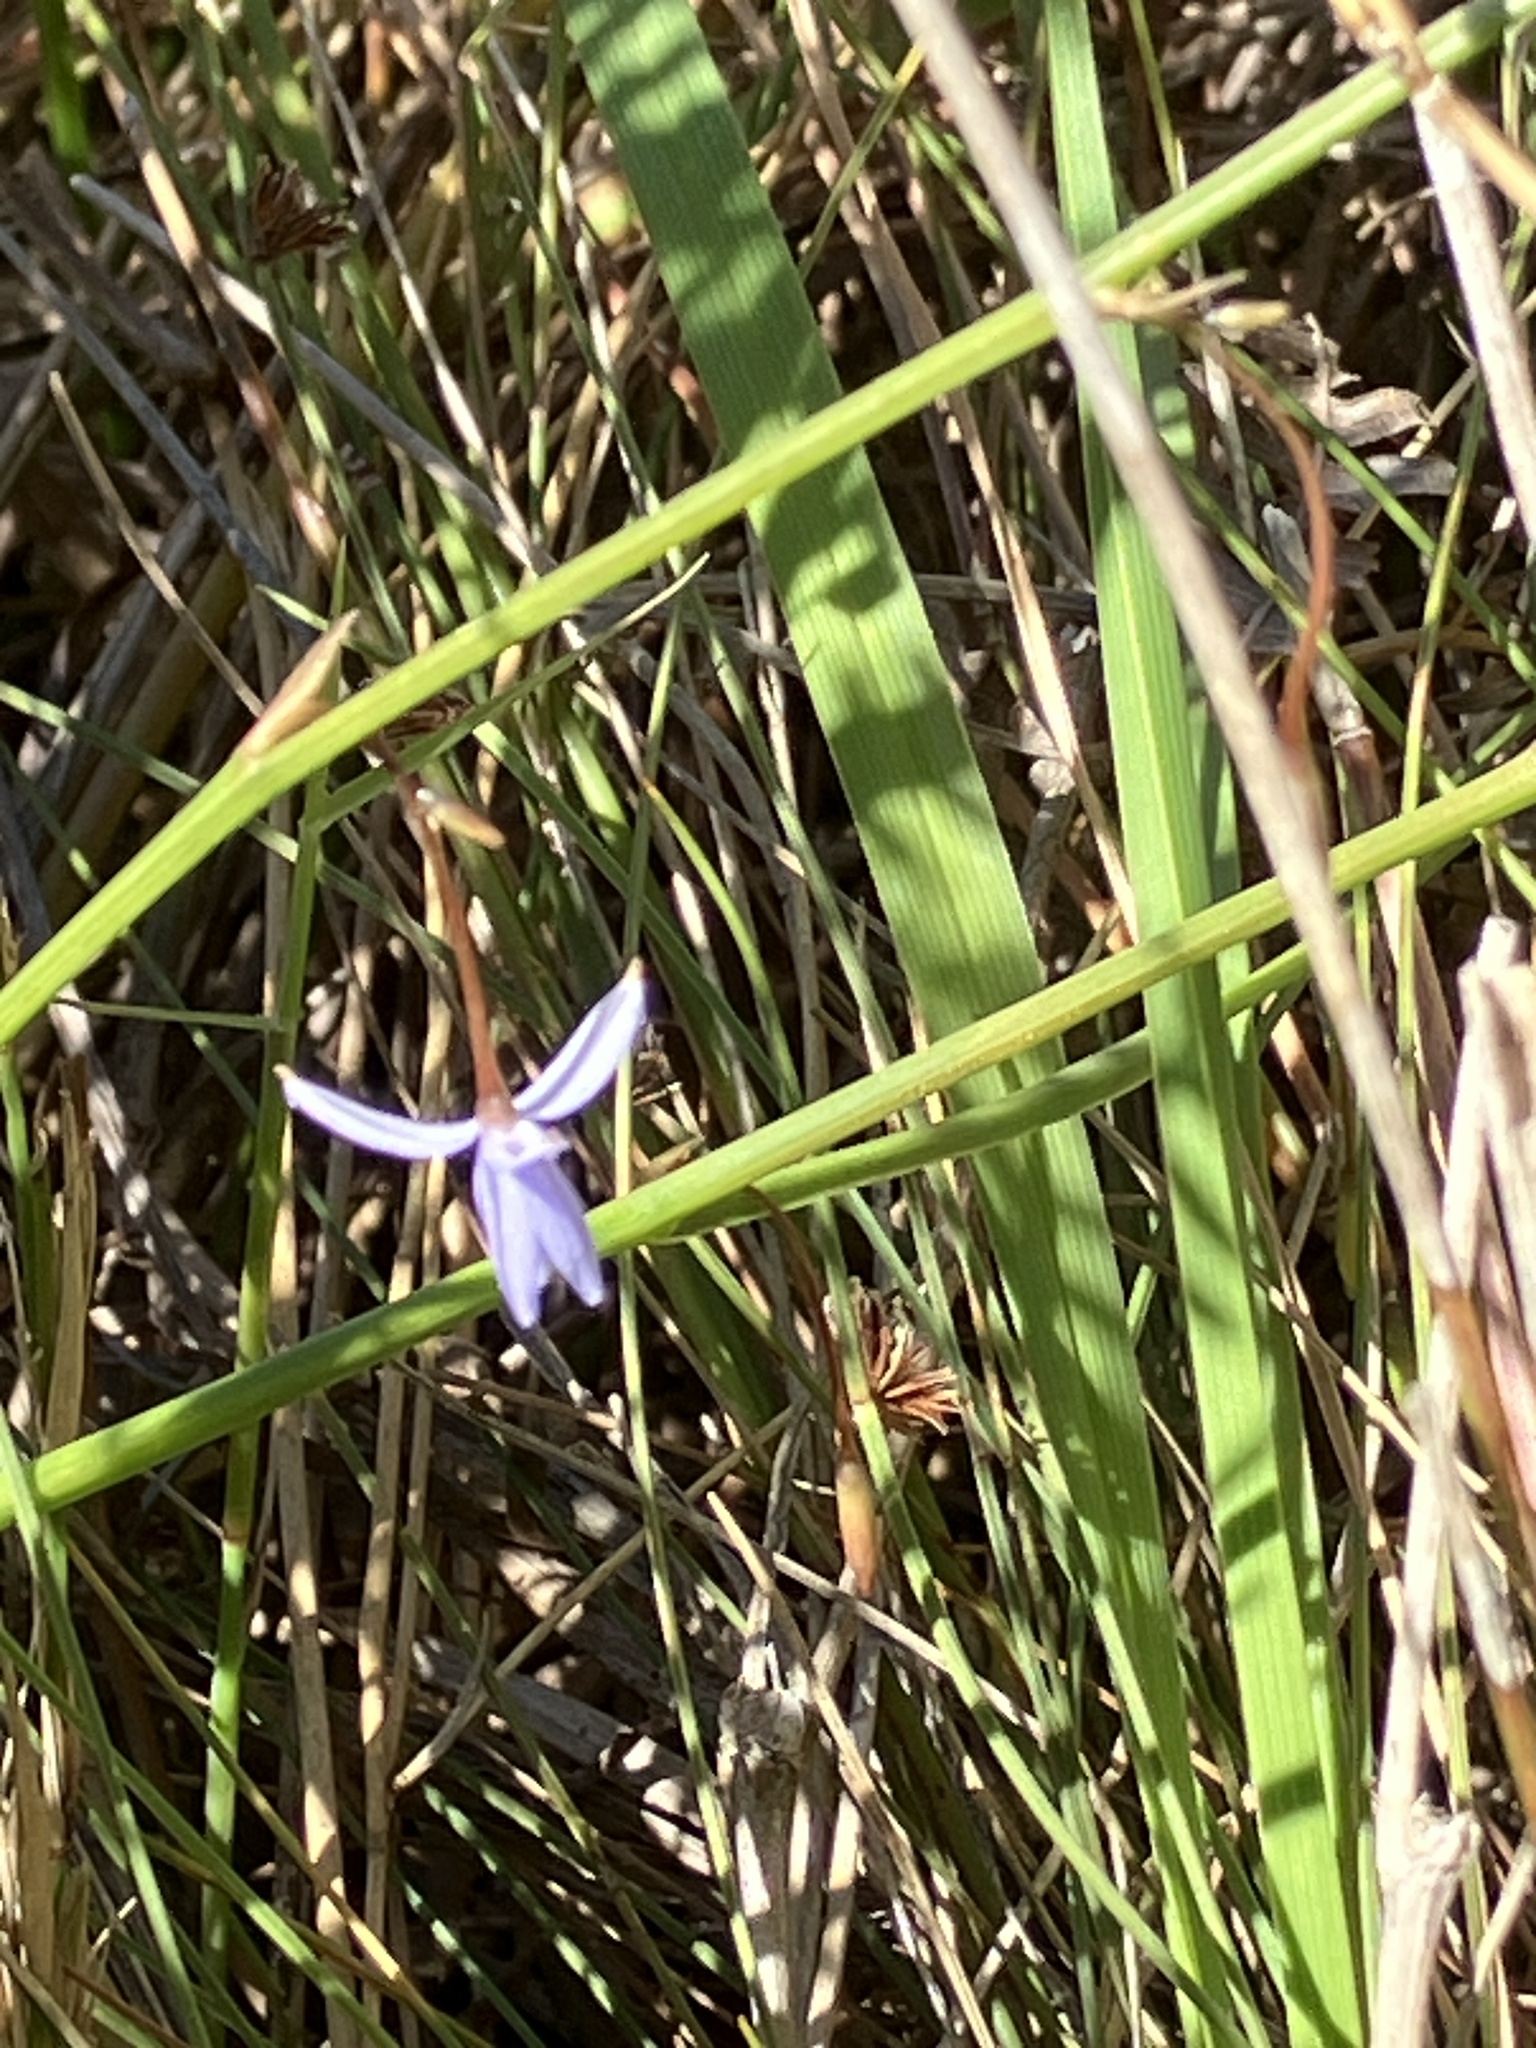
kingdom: Plantae
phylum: Tracheophyta
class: Liliopsida
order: Asparagales
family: Asphodelaceae
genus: Caesia
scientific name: Caesia contorta
